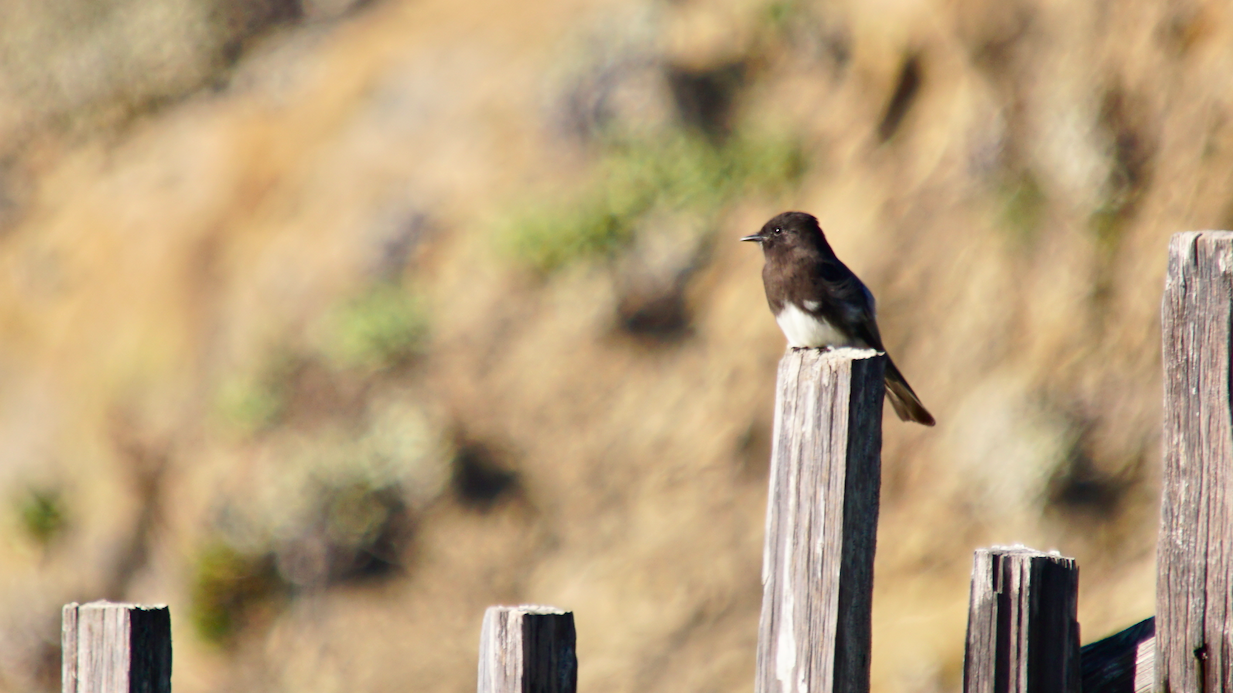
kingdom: Animalia
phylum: Chordata
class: Aves
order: Passeriformes
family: Tyrannidae
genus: Sayornis
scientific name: Sayornis nigricans
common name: Black phoebe
